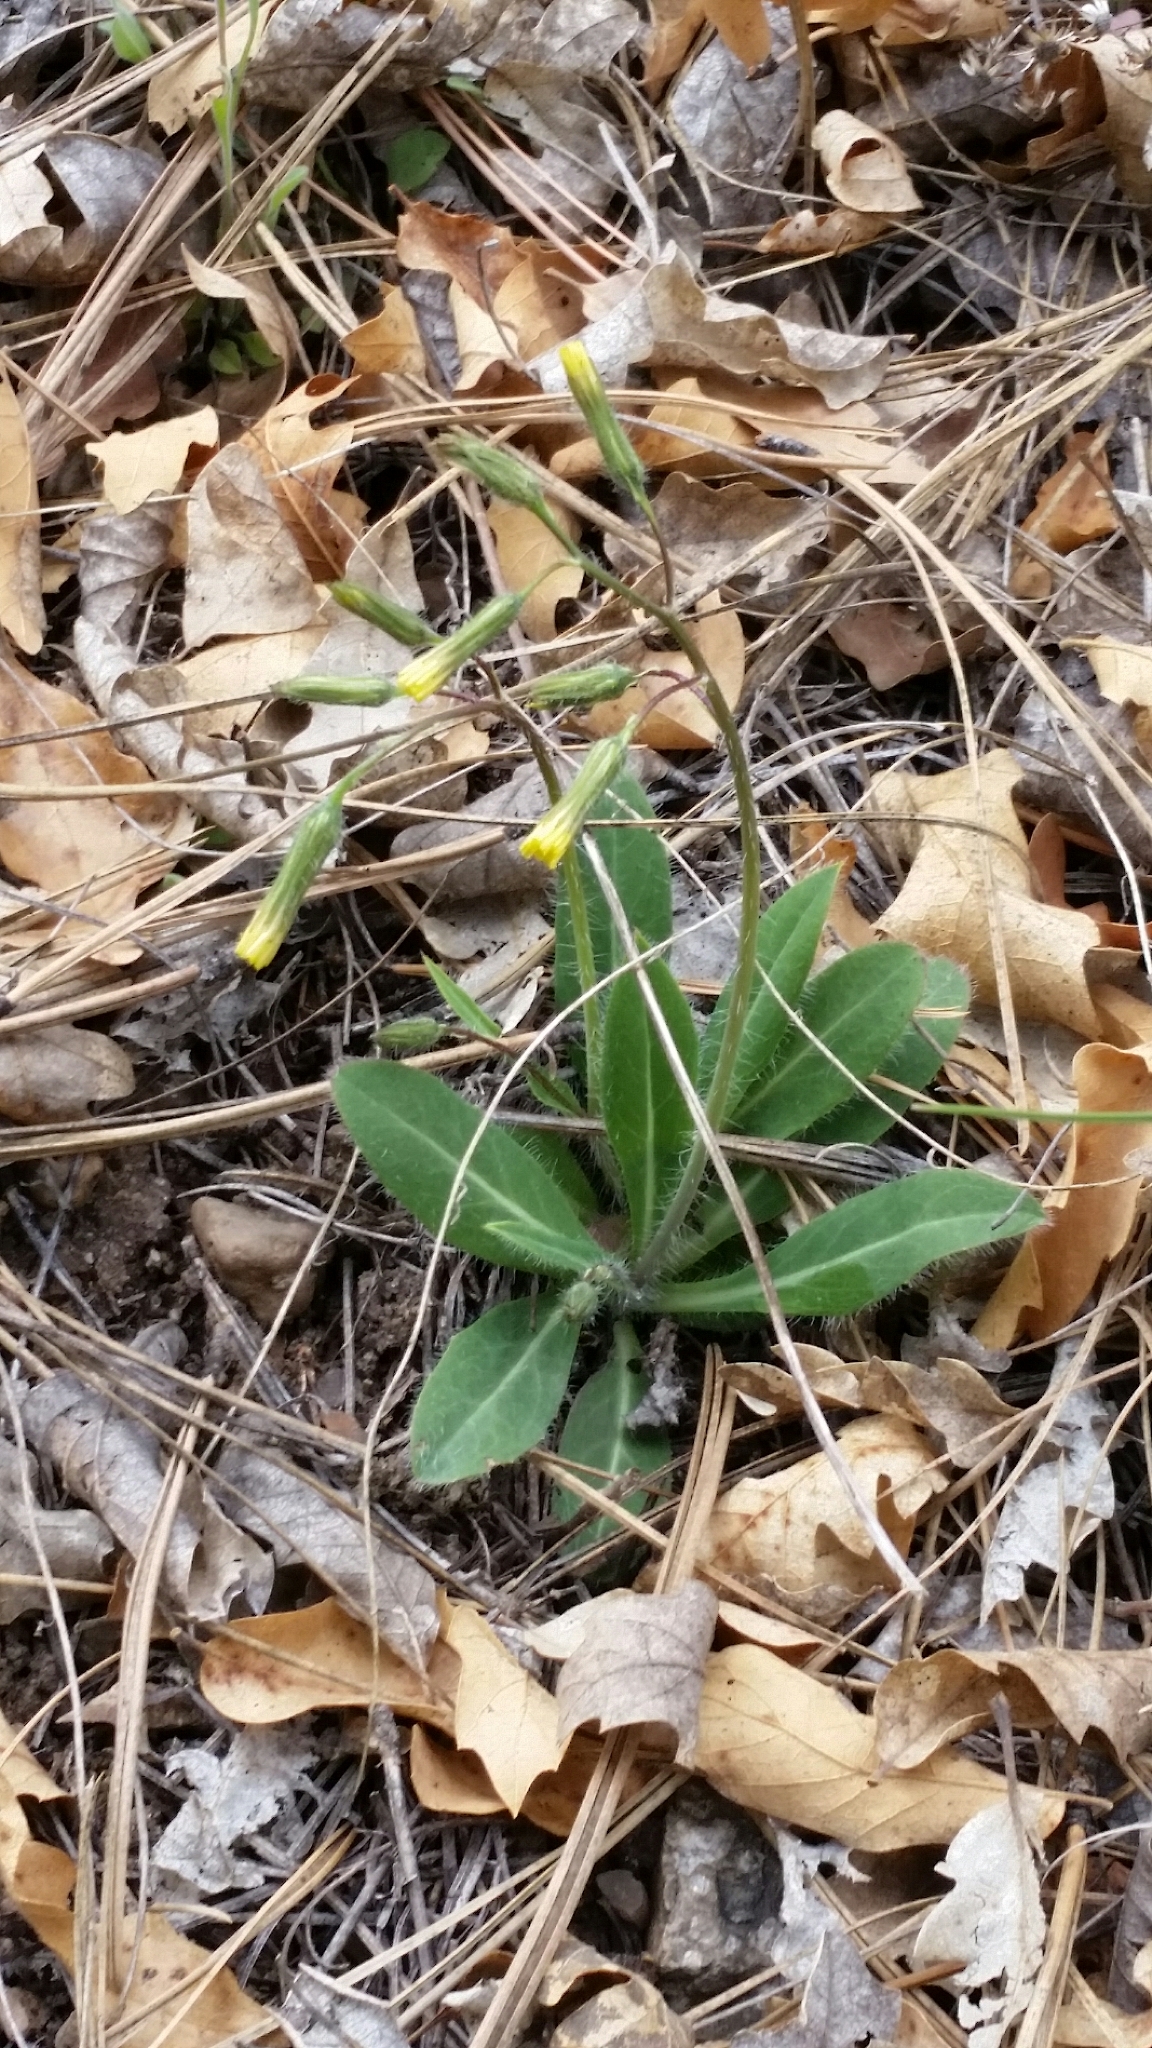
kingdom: Plantae
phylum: Tracheophyta
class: Magnoliopsida
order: Asterales
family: Asteraceae
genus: Hieracium
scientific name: Hieracium fendleri
